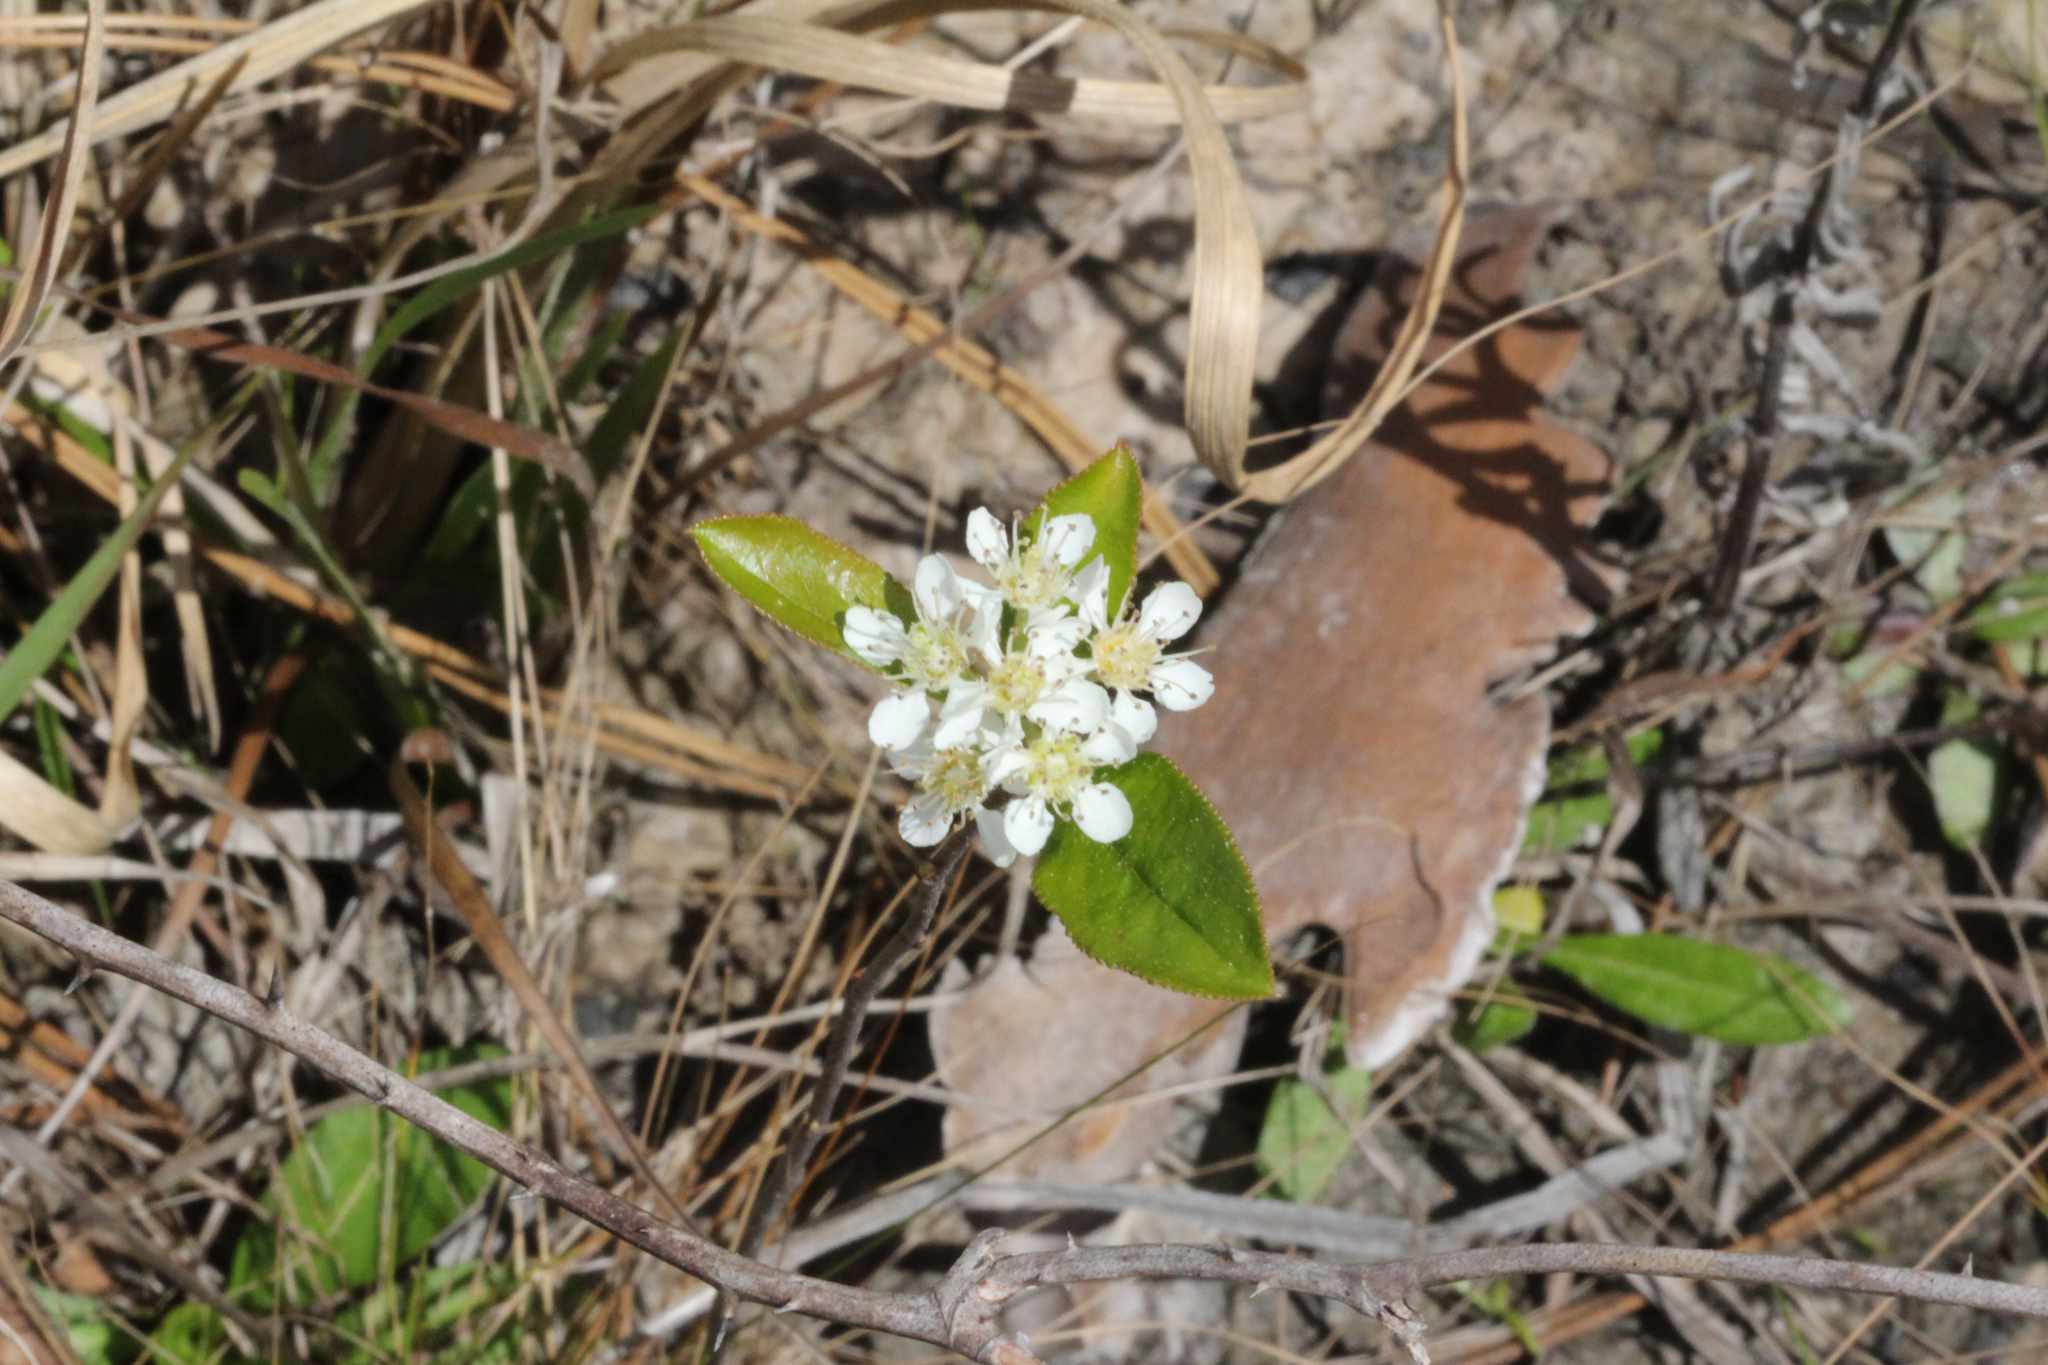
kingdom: Plantae
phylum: Tracheophyta
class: Magnoliopsida
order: Rosales
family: Rosaceae
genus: Aronia
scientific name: Aronia arbutifolia
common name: Red chokeberry
